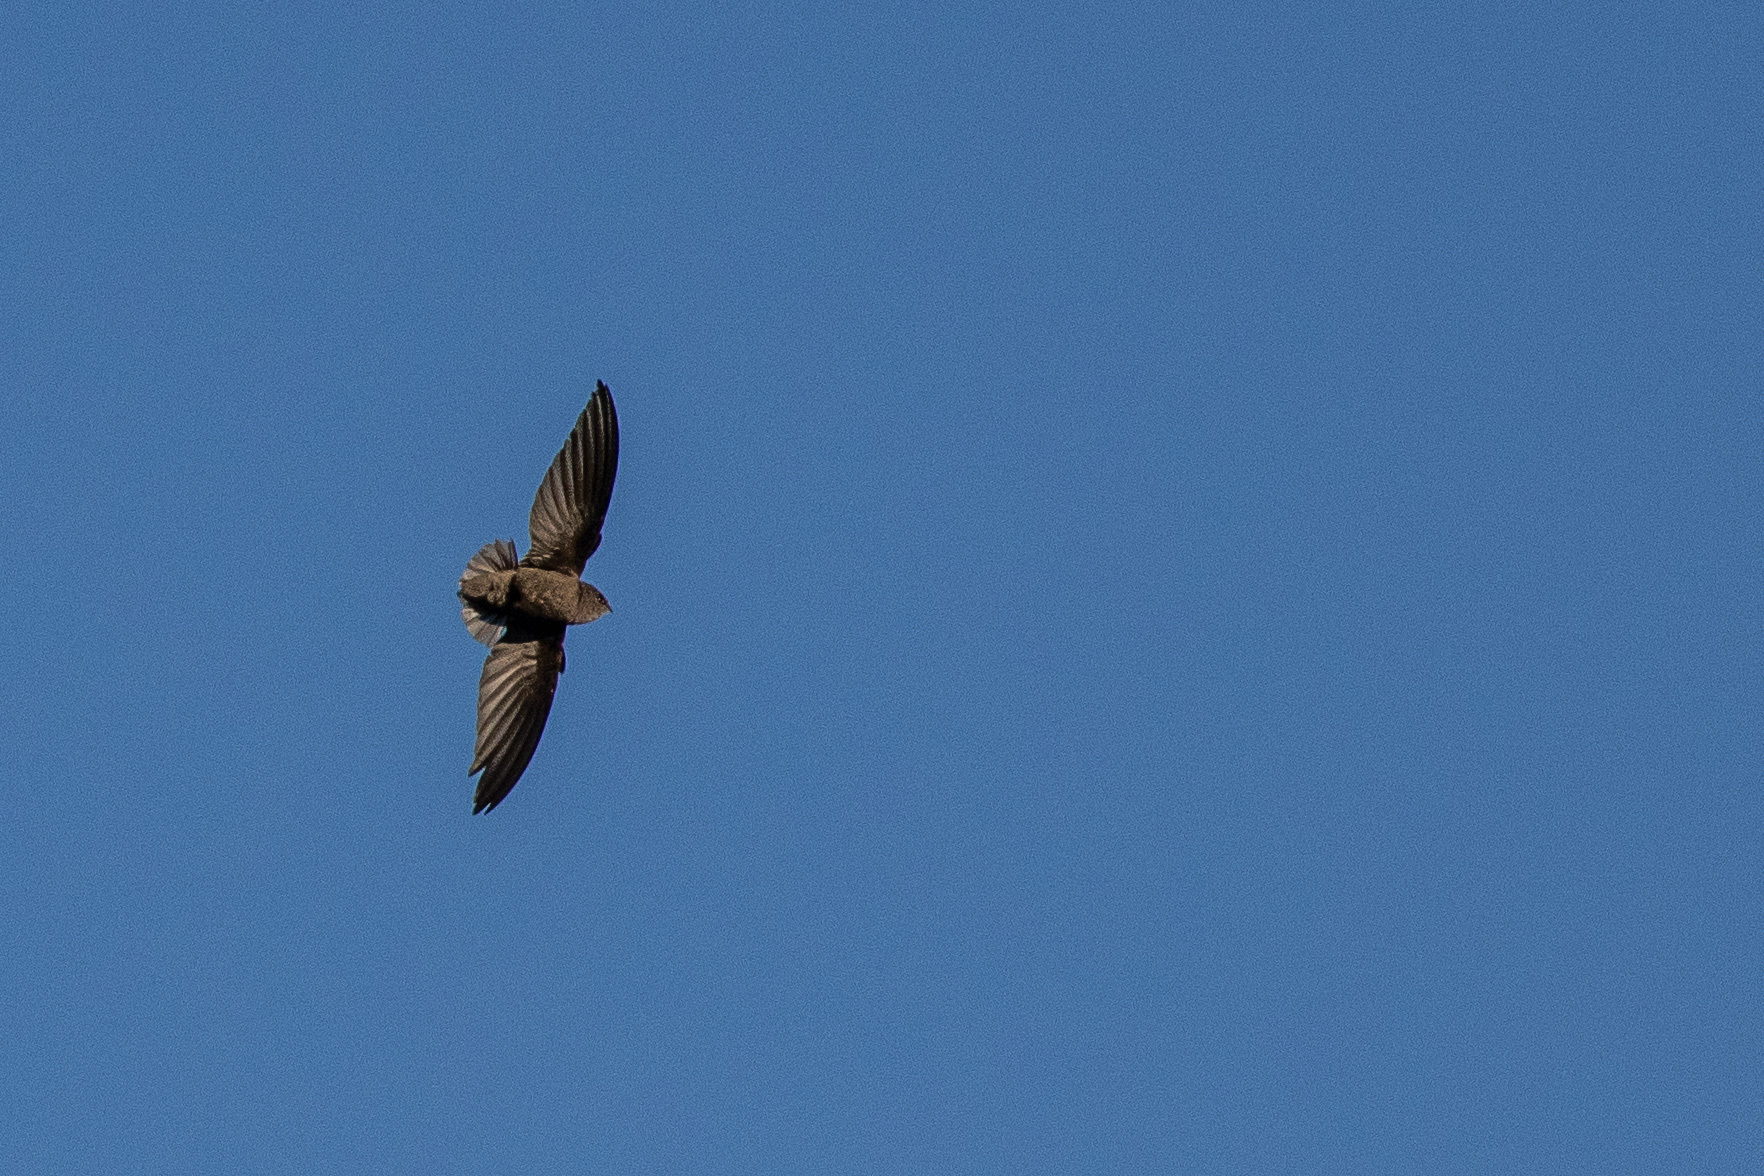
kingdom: Animalia
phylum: Chordata
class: Aves
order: Apodiformes
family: Apodidae
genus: Chaetura
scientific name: Chaetura meridionalis
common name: Sick's swift
